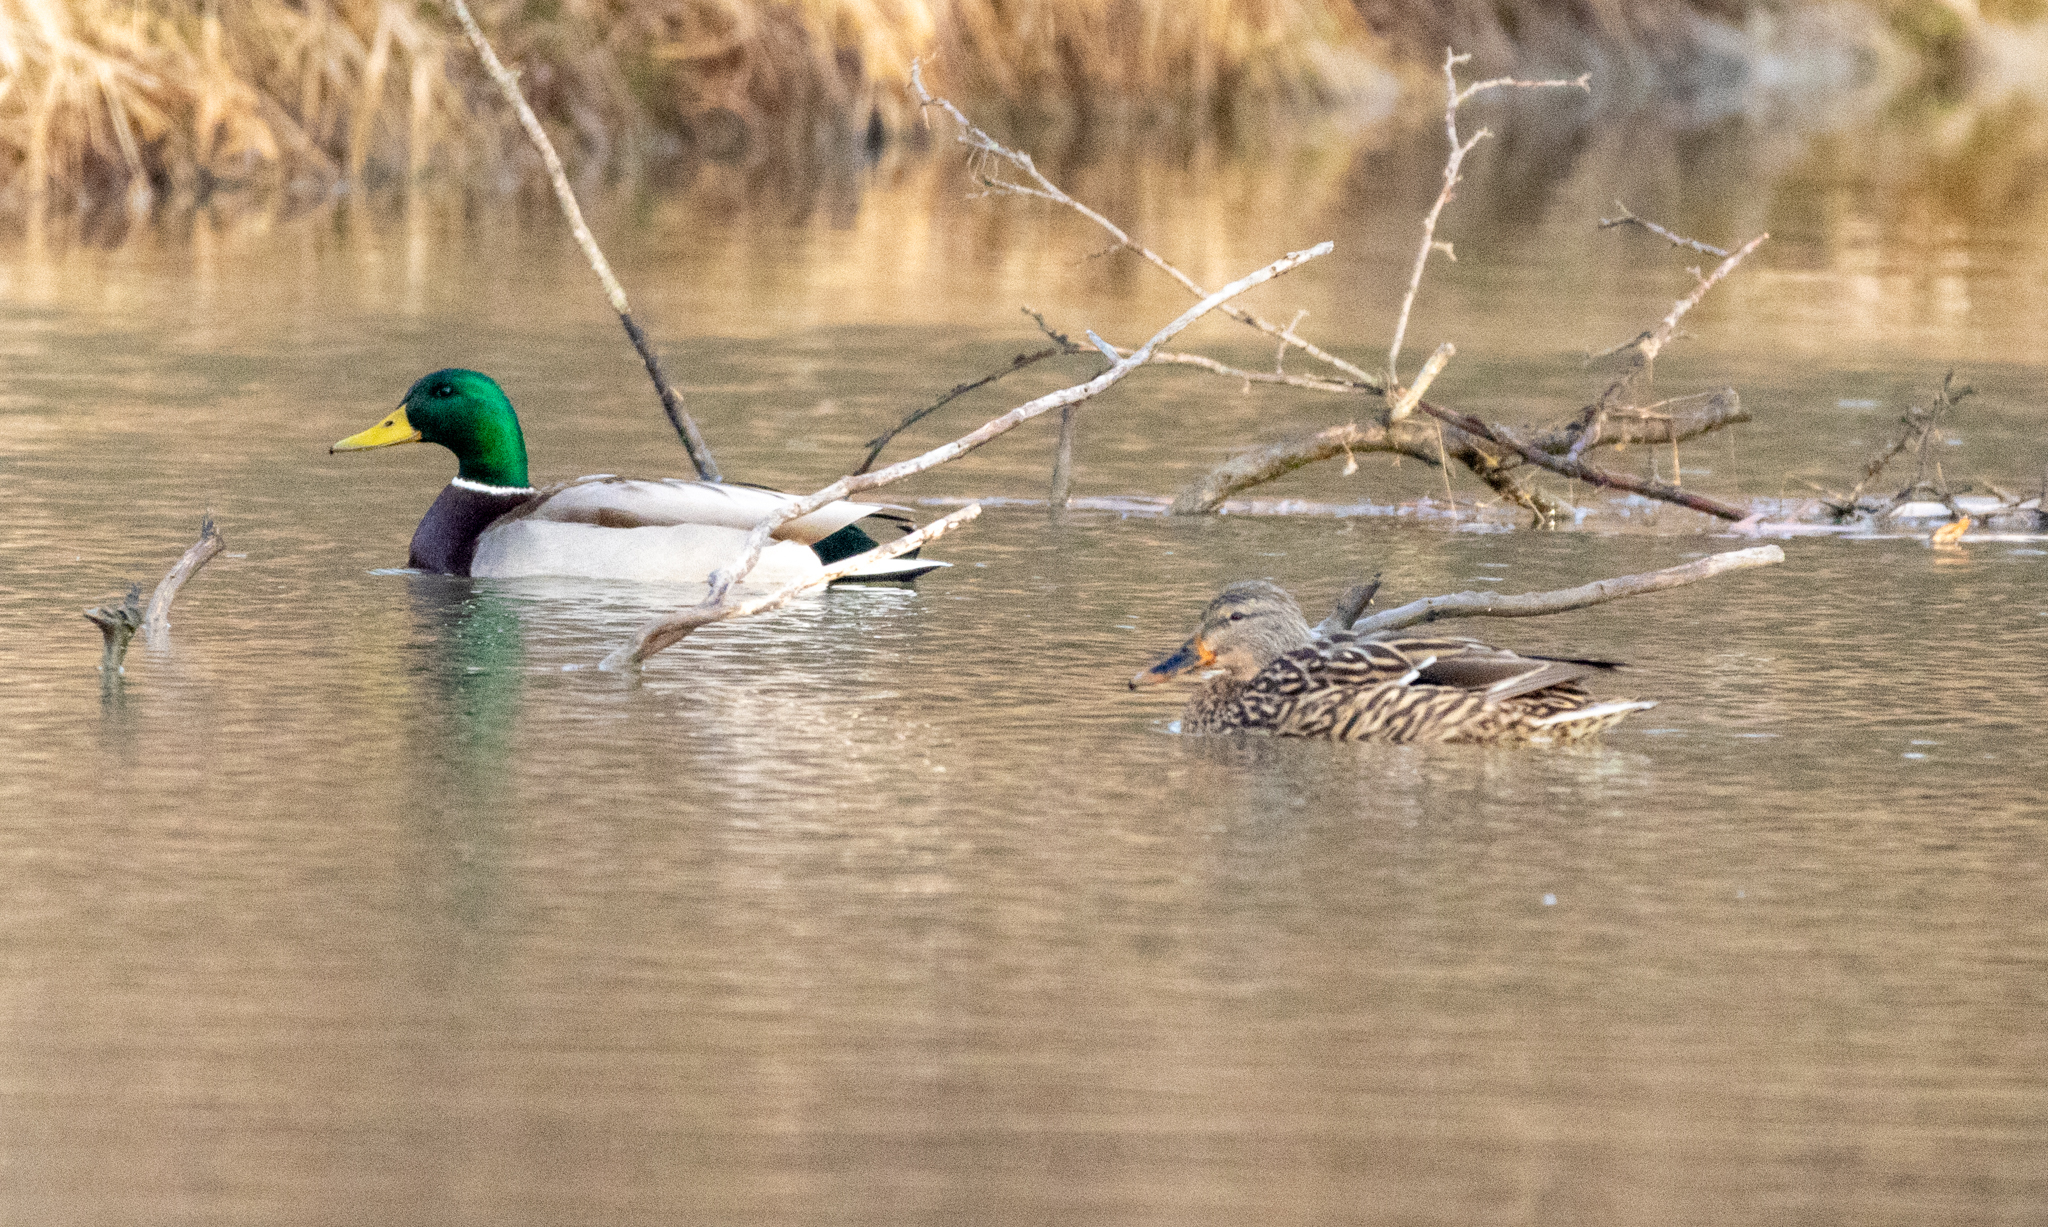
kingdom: Animalia
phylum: Chordata
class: Aves
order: Anseriformes
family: Anatidae
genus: Anas
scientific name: Anas platyrhynchos
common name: Mallard
